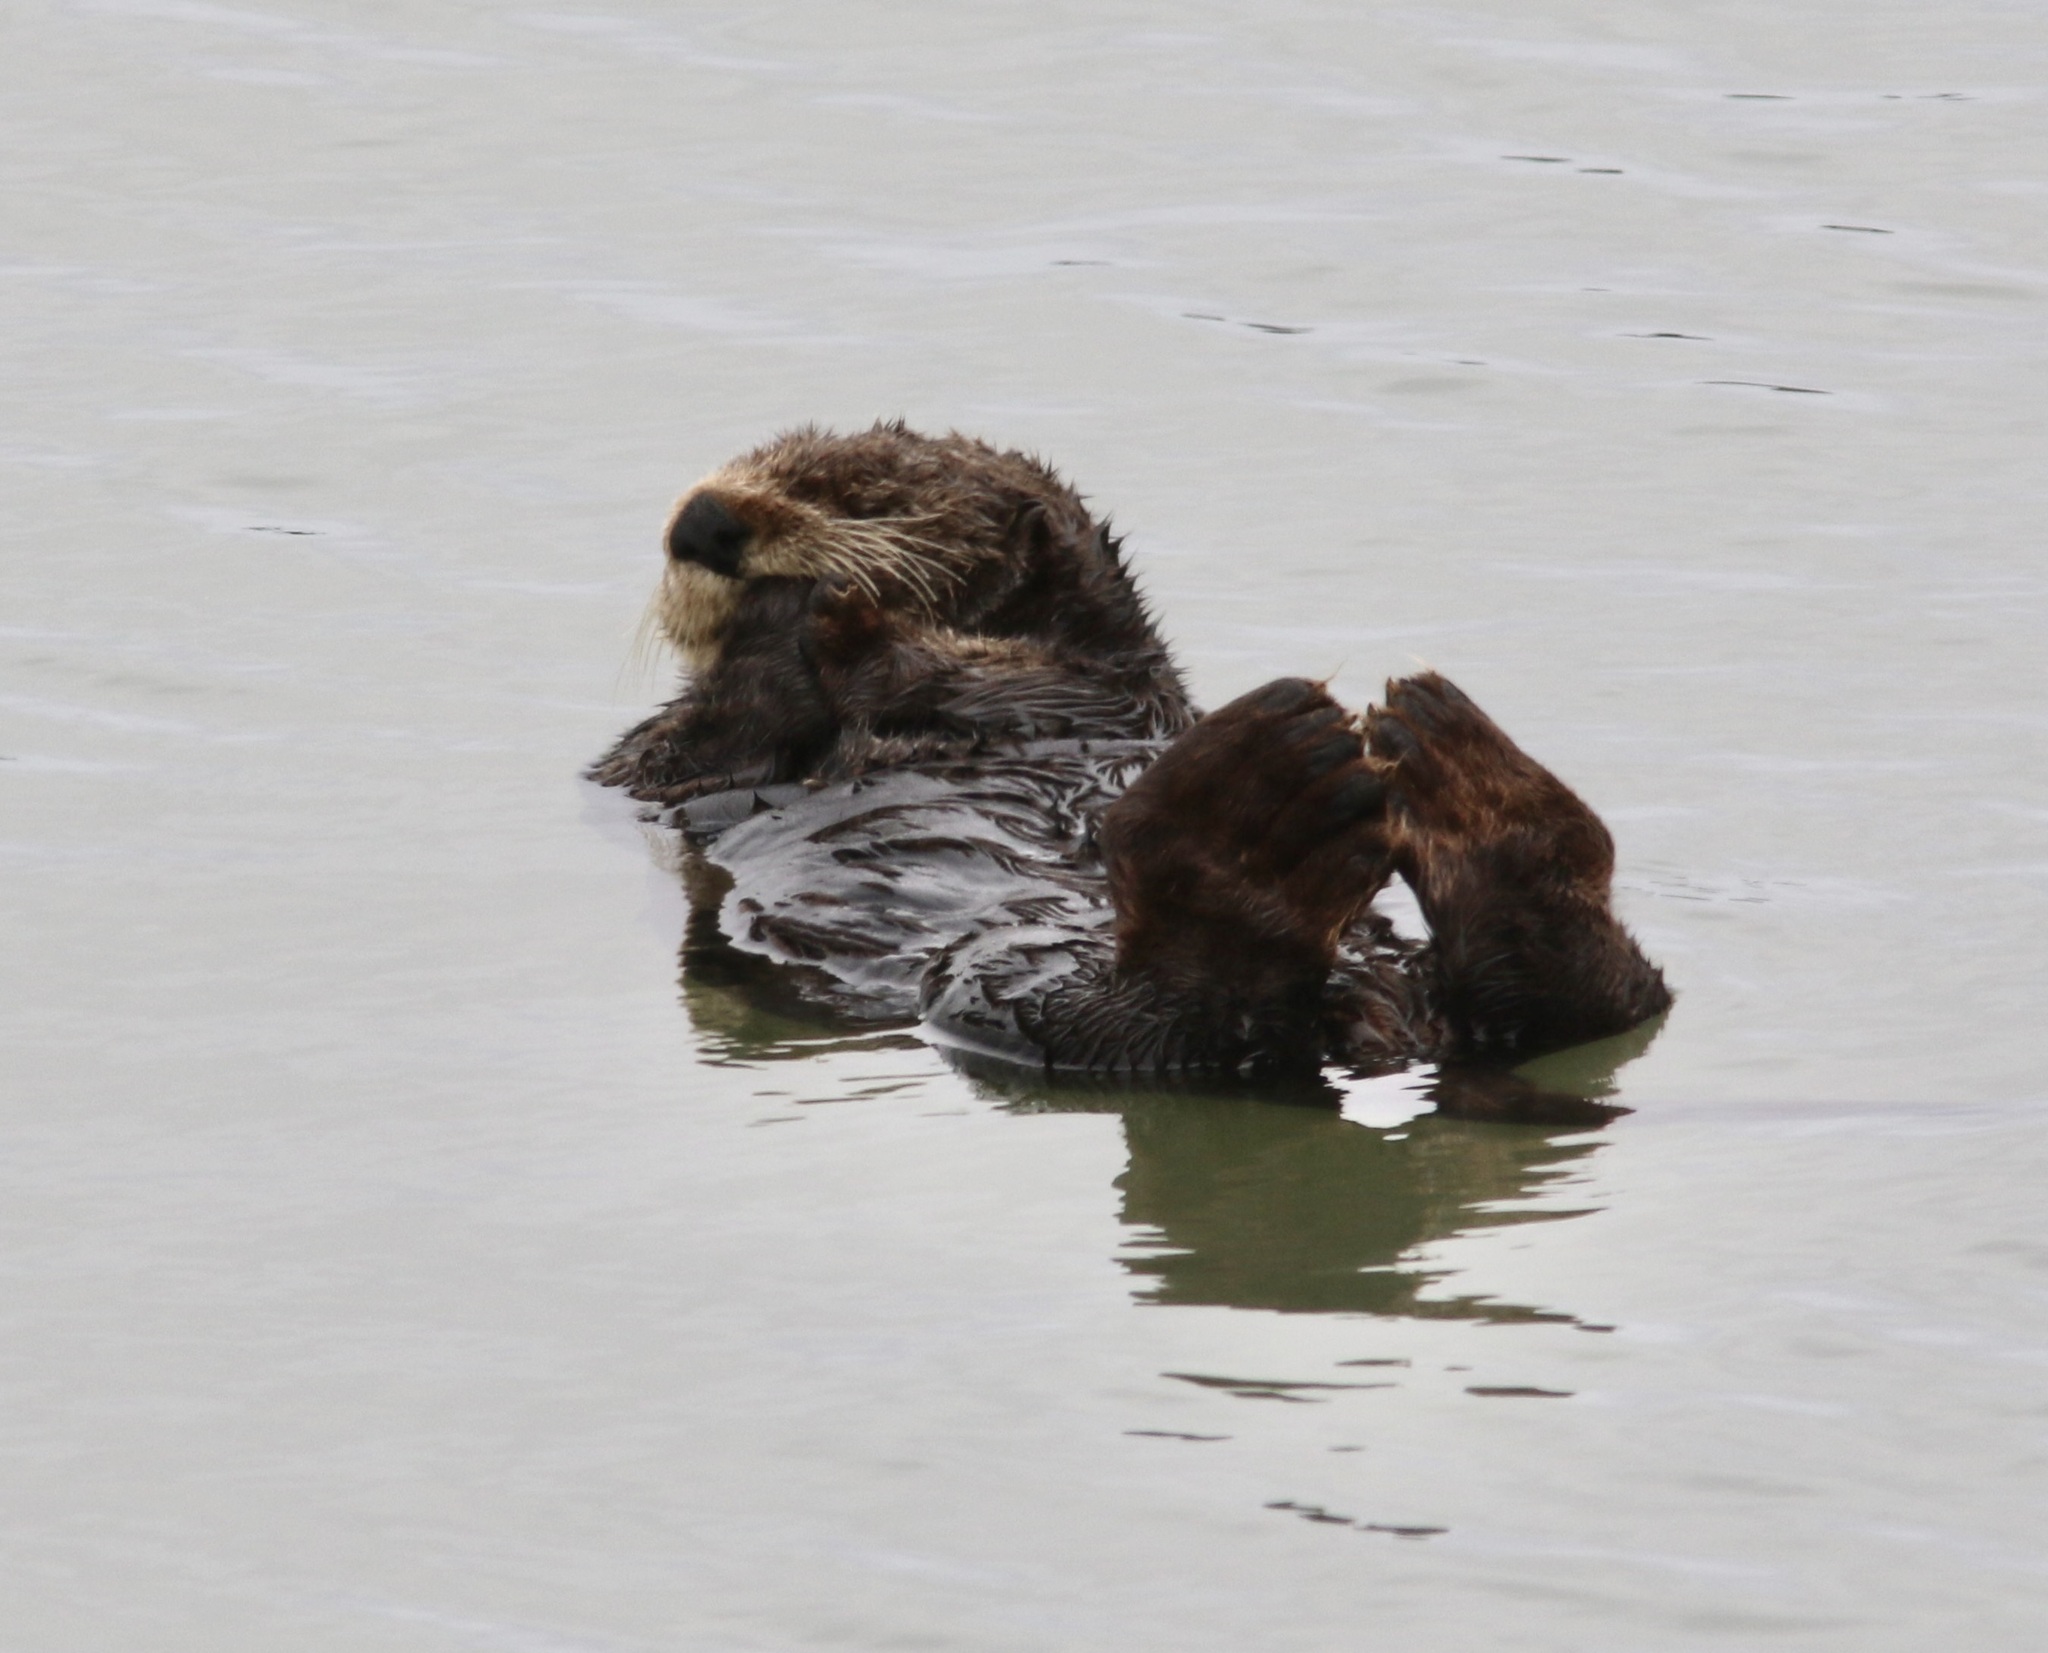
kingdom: Animalia
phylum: Chordata
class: Mammalia
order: Carnivora
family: Mustelidae
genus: Enhydra
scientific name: Enhydra lutris
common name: Sea otter
